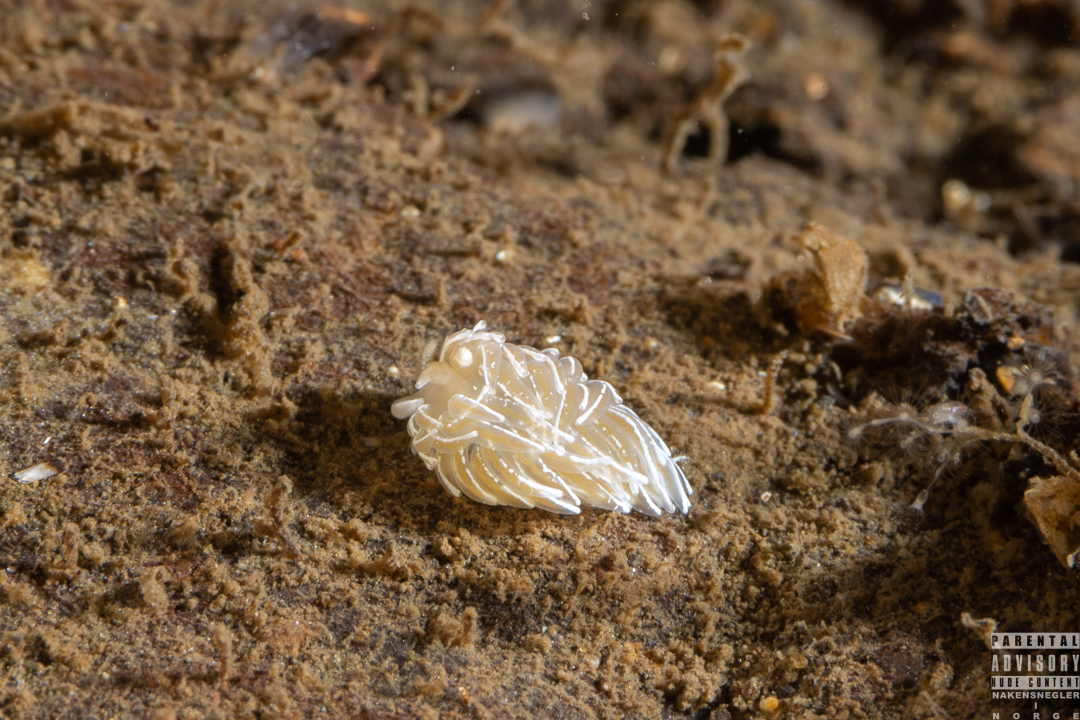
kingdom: Animalia
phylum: Mollusca
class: Gastropoda
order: Nudibranchia
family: Facelinidae
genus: Favorinus
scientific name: Favorinus blianus
